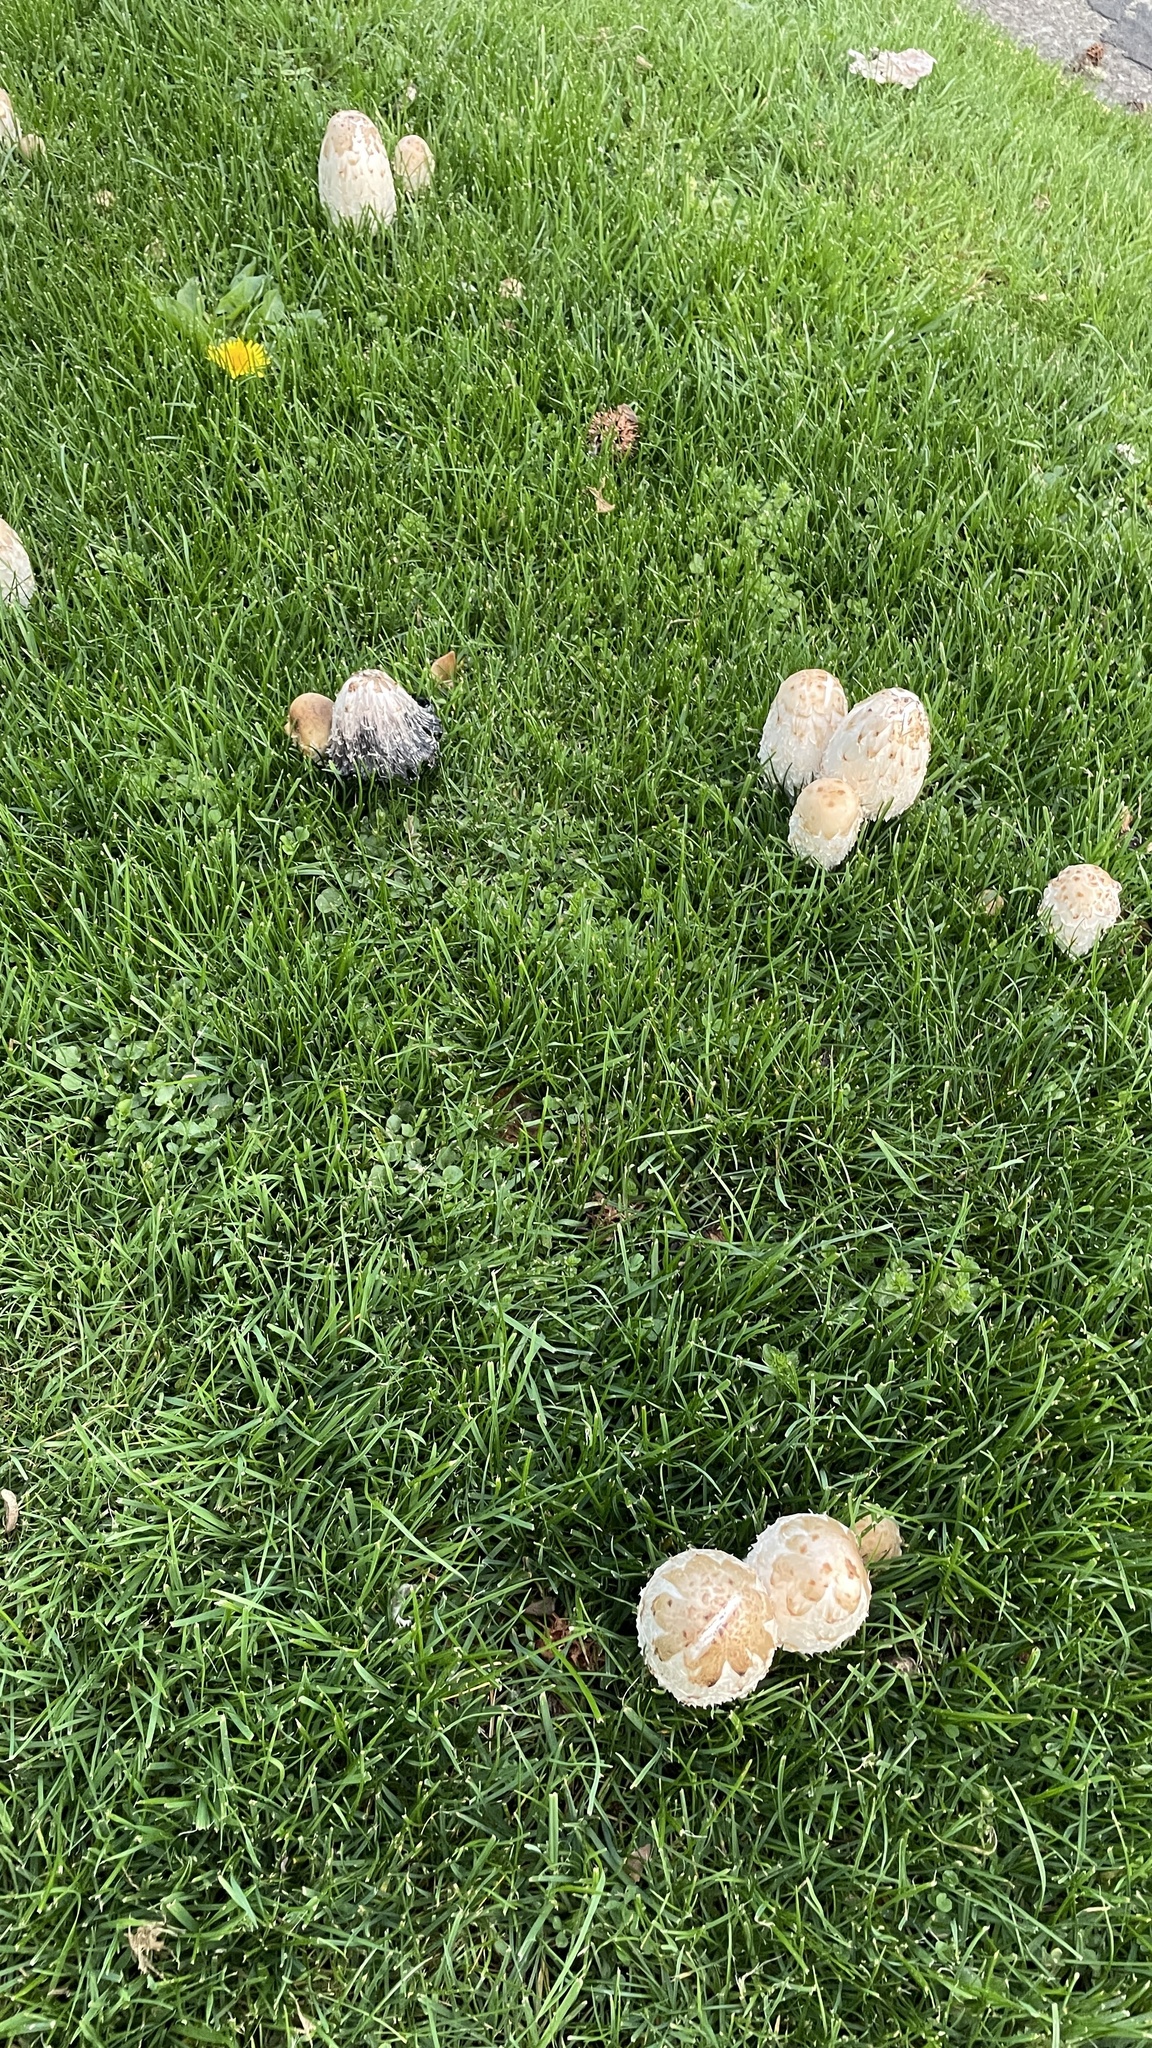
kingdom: Fungi
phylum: Basidiomycota
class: Agaricomycetes
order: Agaricales
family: Agaricaceae
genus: Coprinus
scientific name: Coprinus comatus
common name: Lawyer's wig
